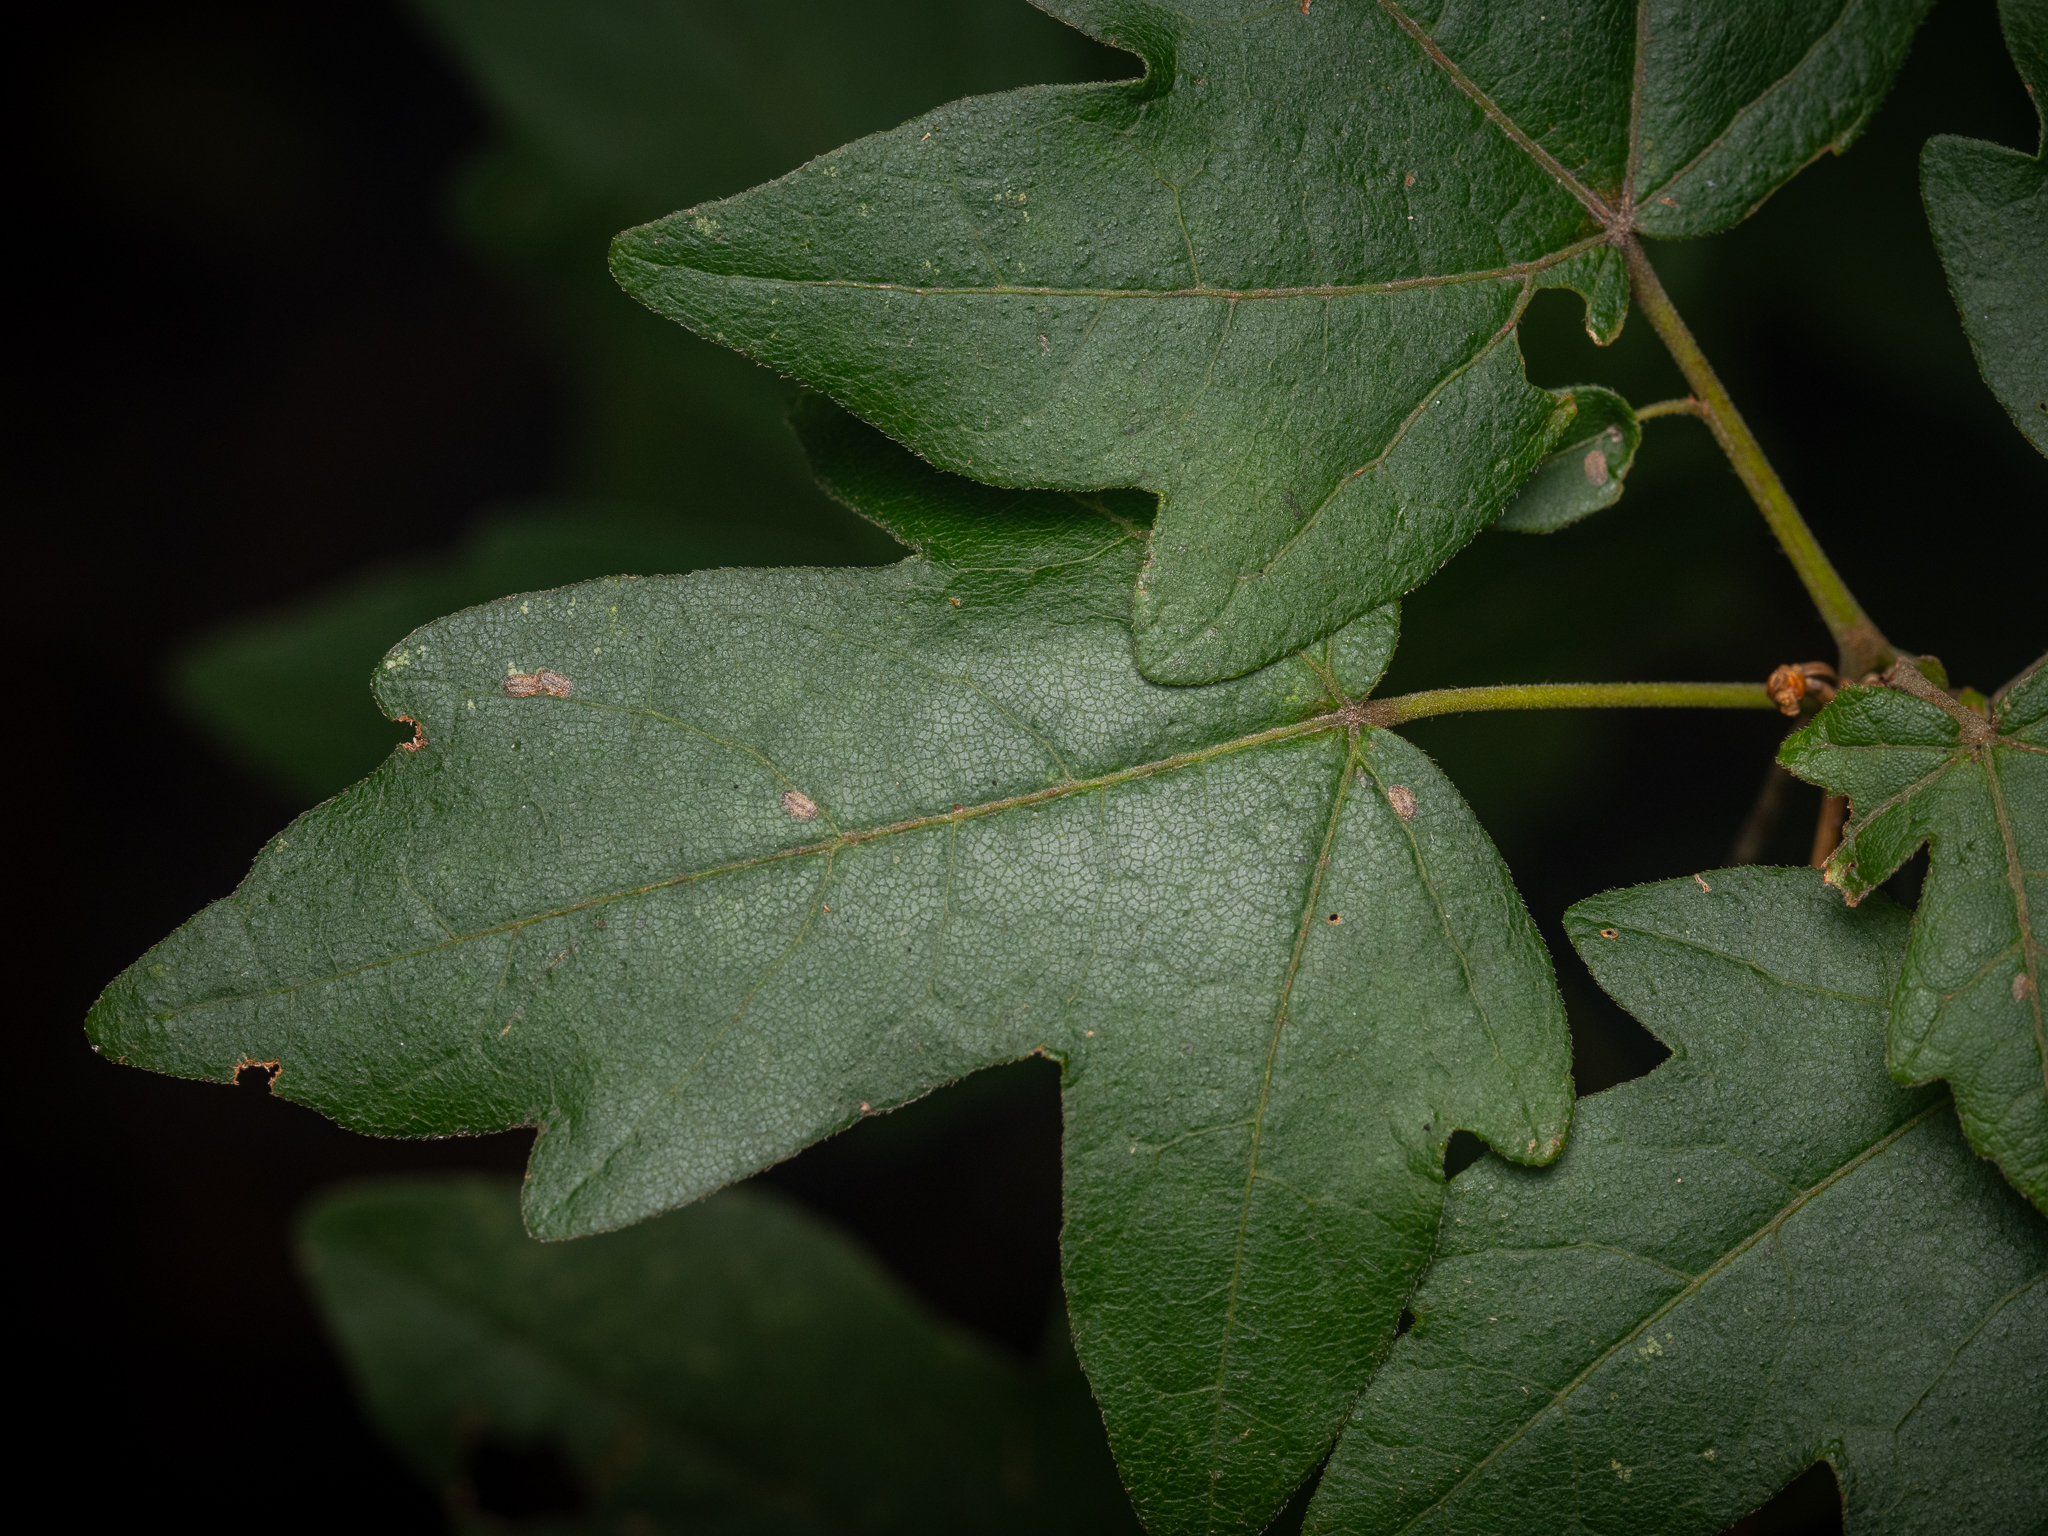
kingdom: Plantae
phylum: Tracheophyta
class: Magnoliopsida
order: Sapindales
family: Sapindaceae
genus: Acer
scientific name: Acer campestre
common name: Field maple
